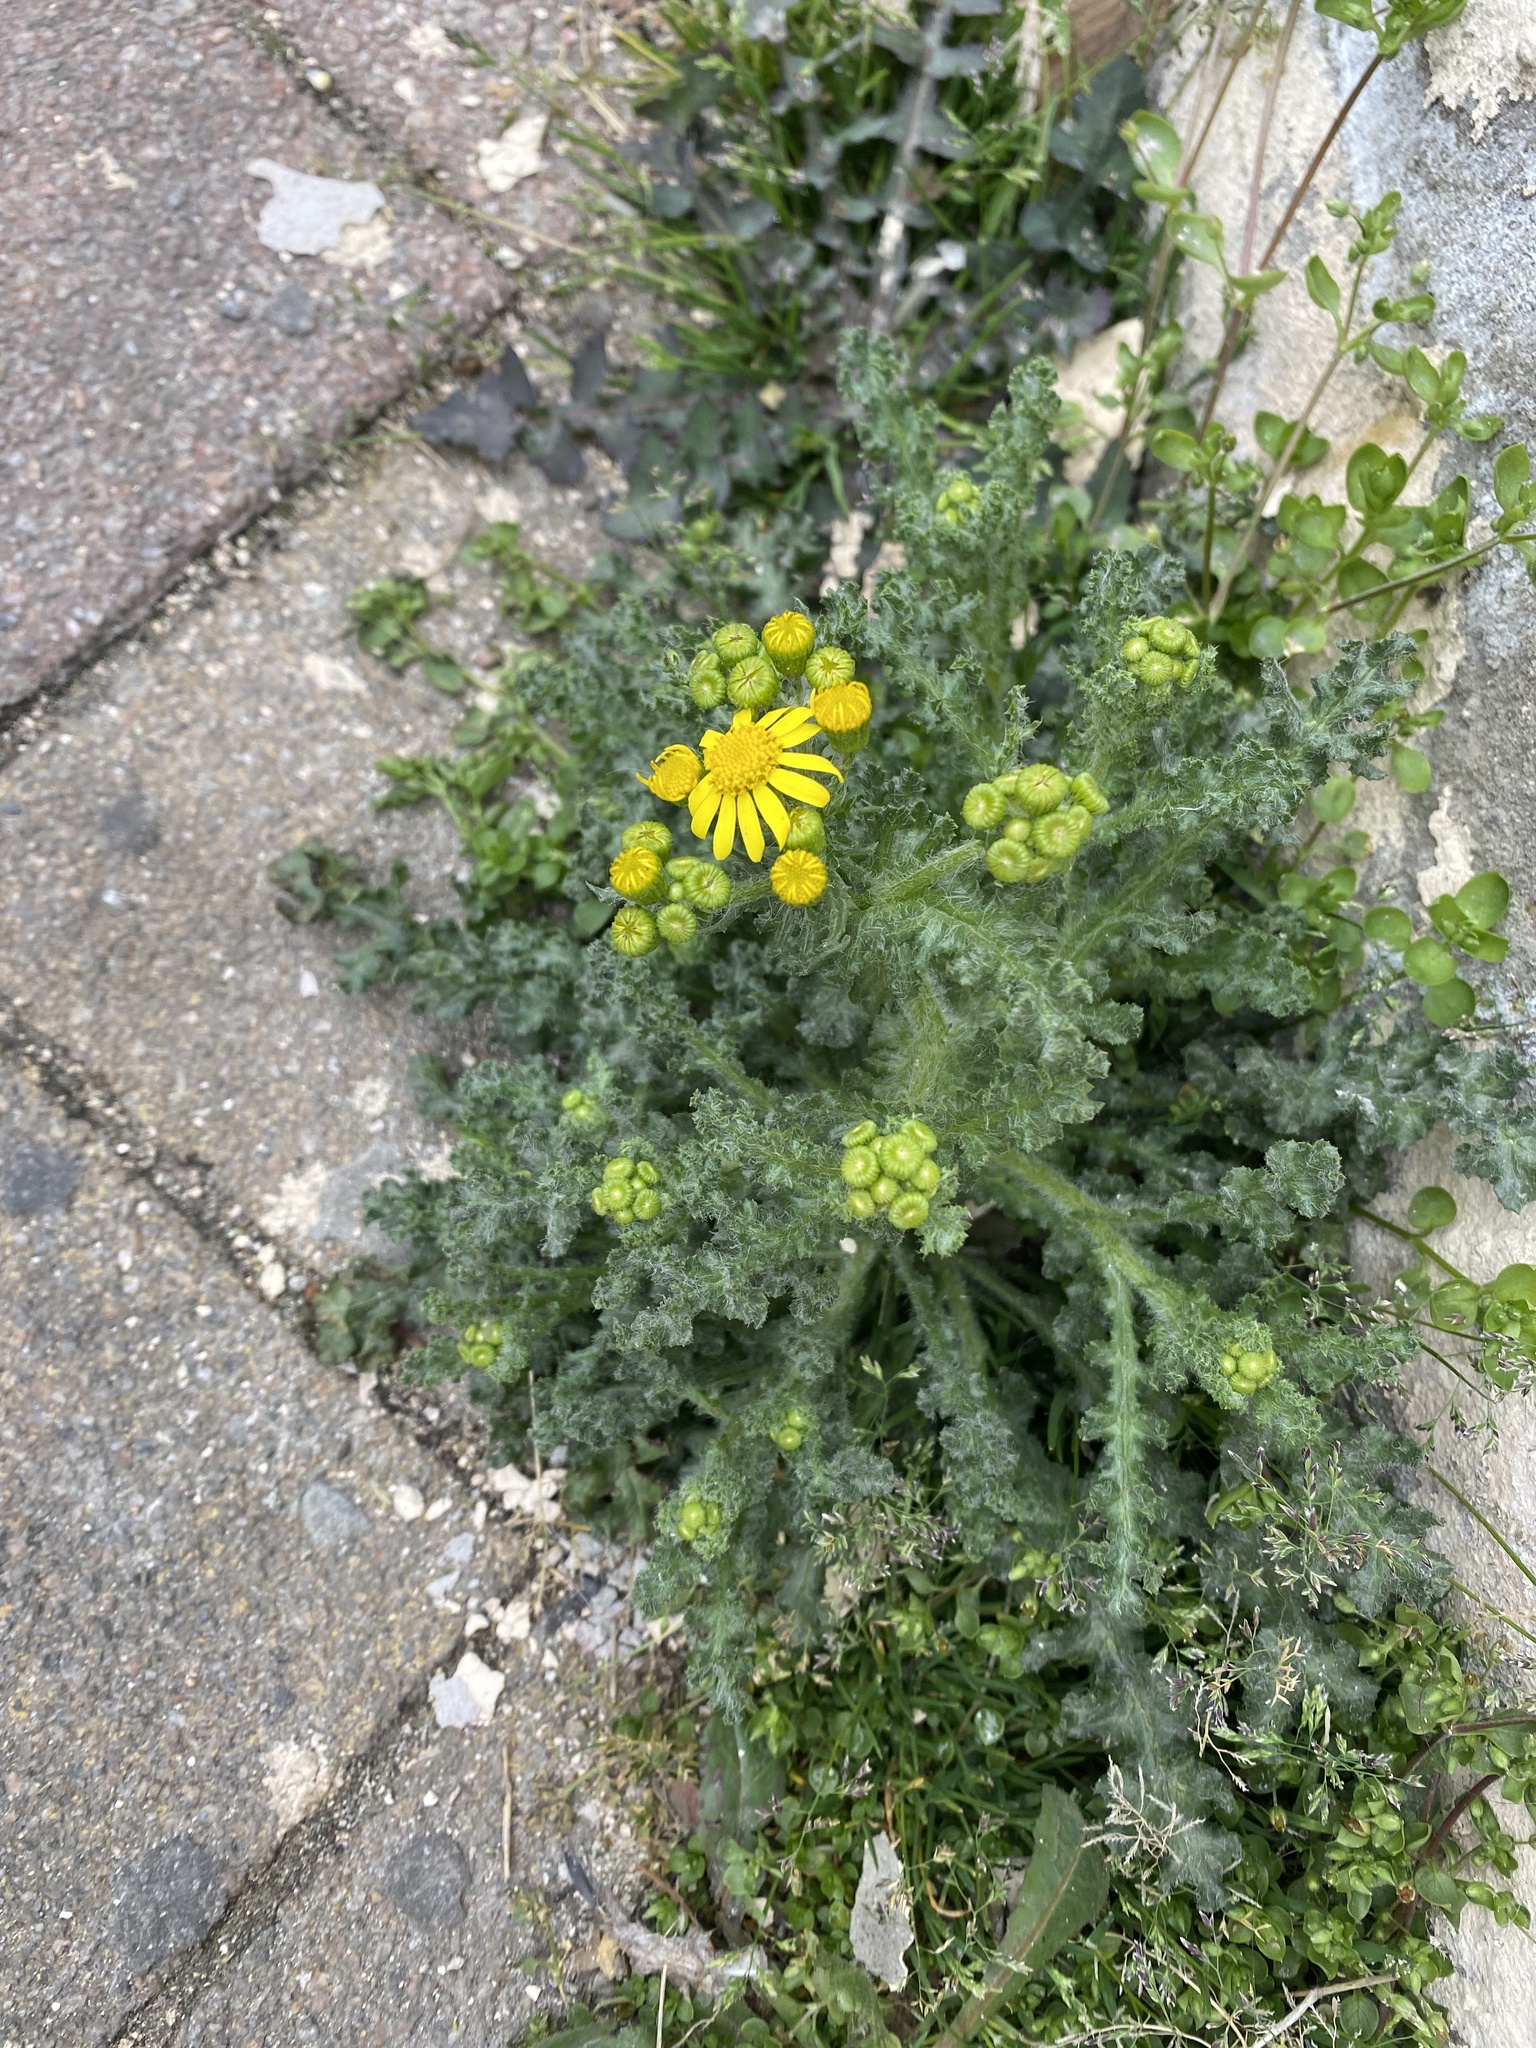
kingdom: Plantae
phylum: Tracheophyta
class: Magnoliopsida
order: Asterales
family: Asteraceae
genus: Senecio
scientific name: Senecio vernalis
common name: Eastern groundsel
